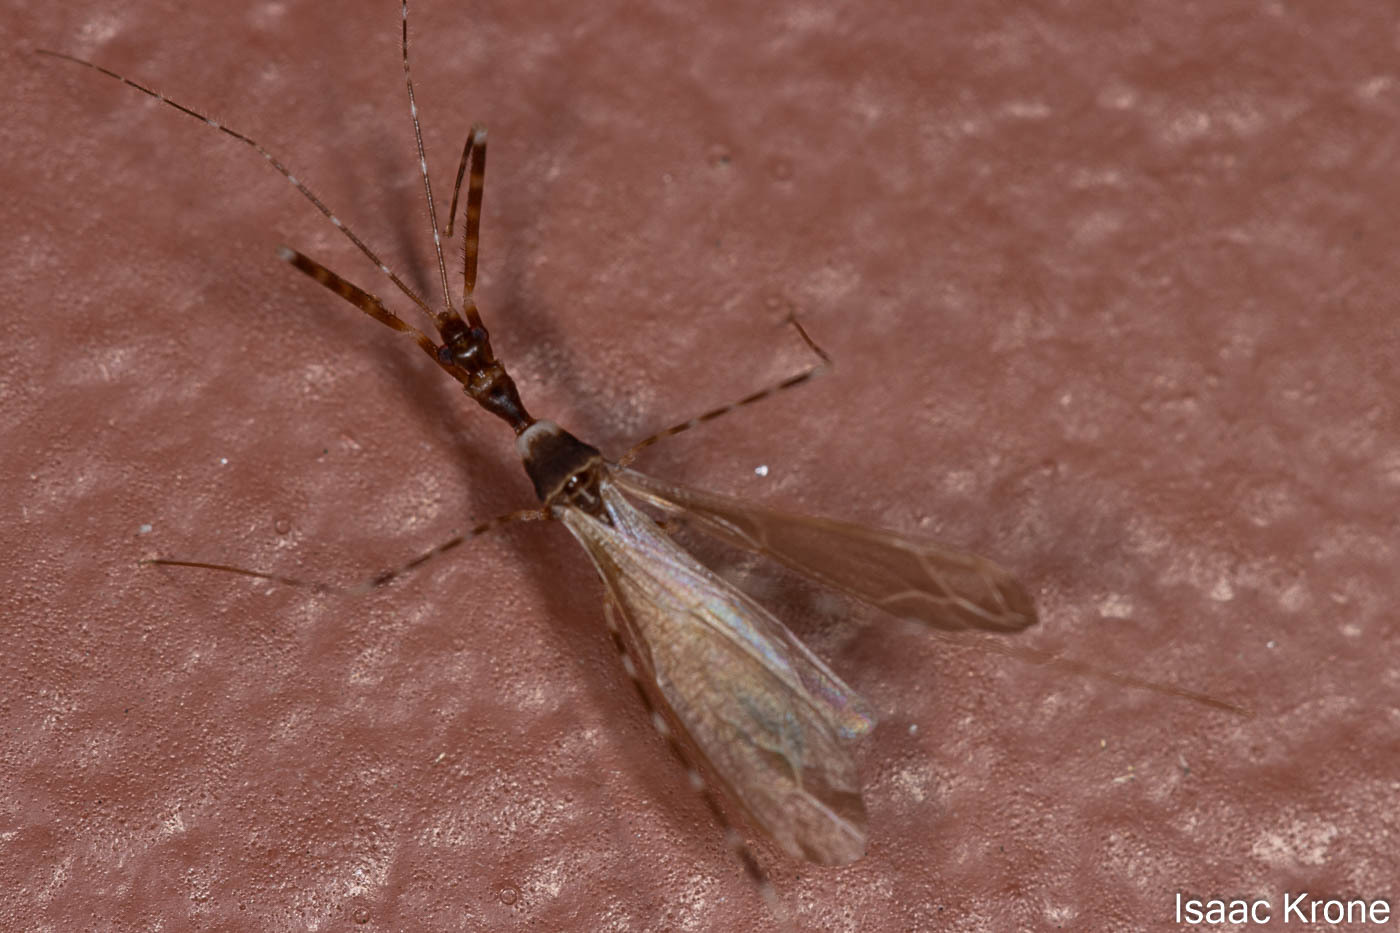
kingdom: Animalia
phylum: Arthropoda
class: Insecta
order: Hemiptera
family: Reduviidae
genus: Stenolemoides
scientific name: Stenolemoides arizonensis
